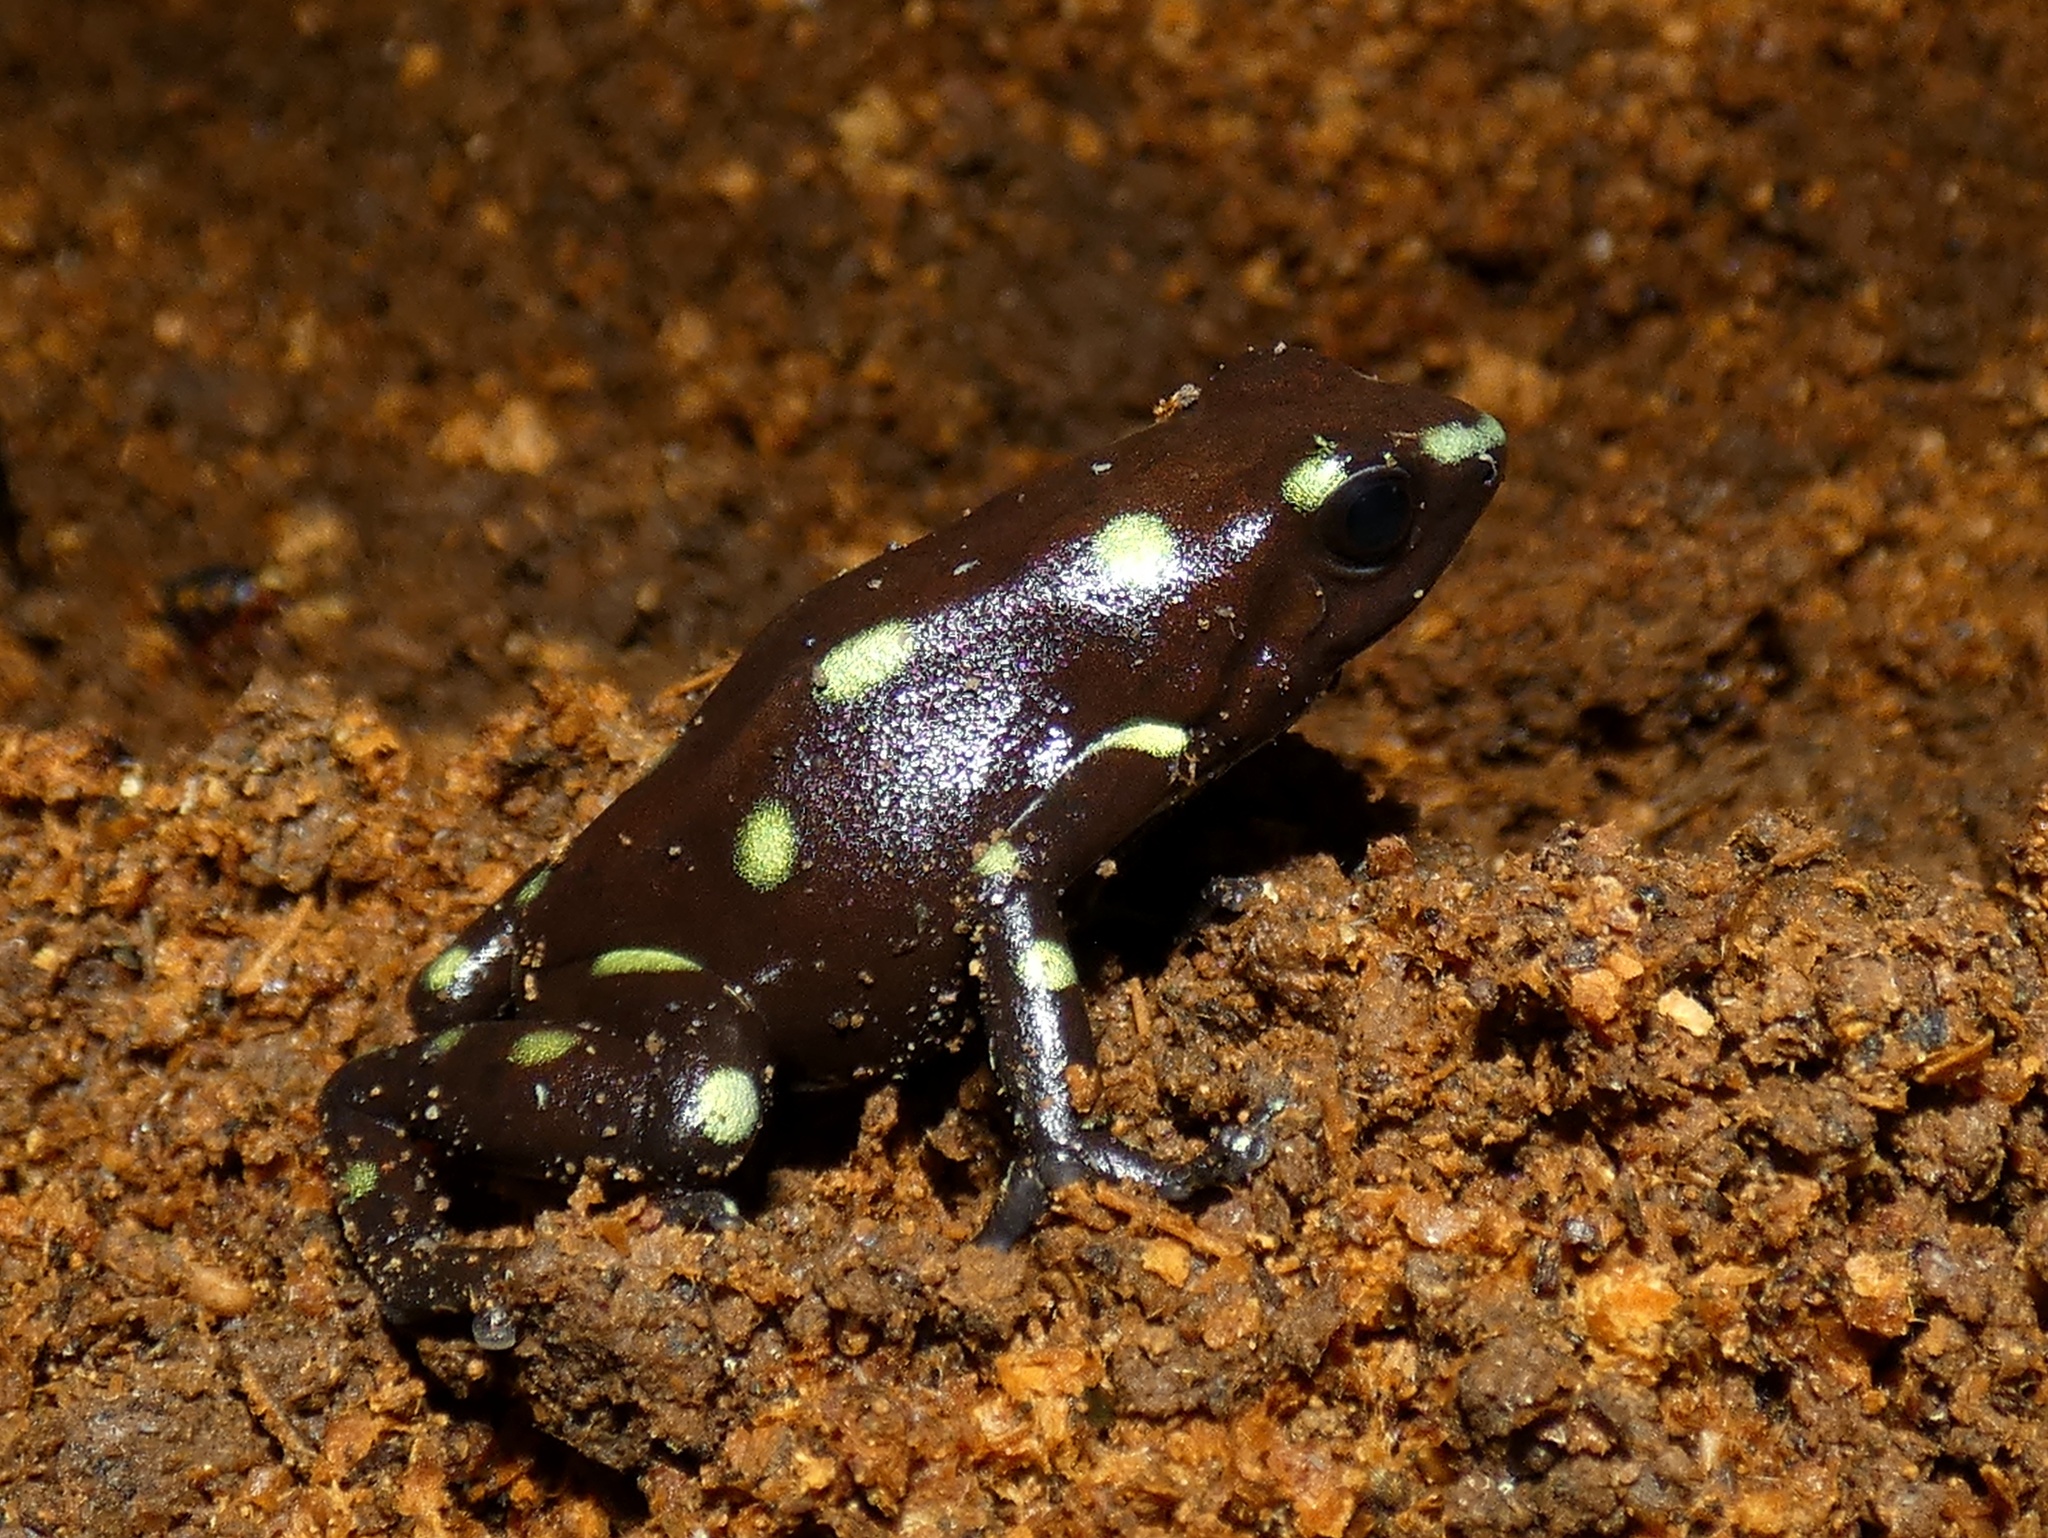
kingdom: Animalia
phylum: Chordata
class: Amphibia
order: Anura
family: Dendrobatidae
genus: Dendrobates
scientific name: Dendrobates auratus
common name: Green and black poison dart frog
